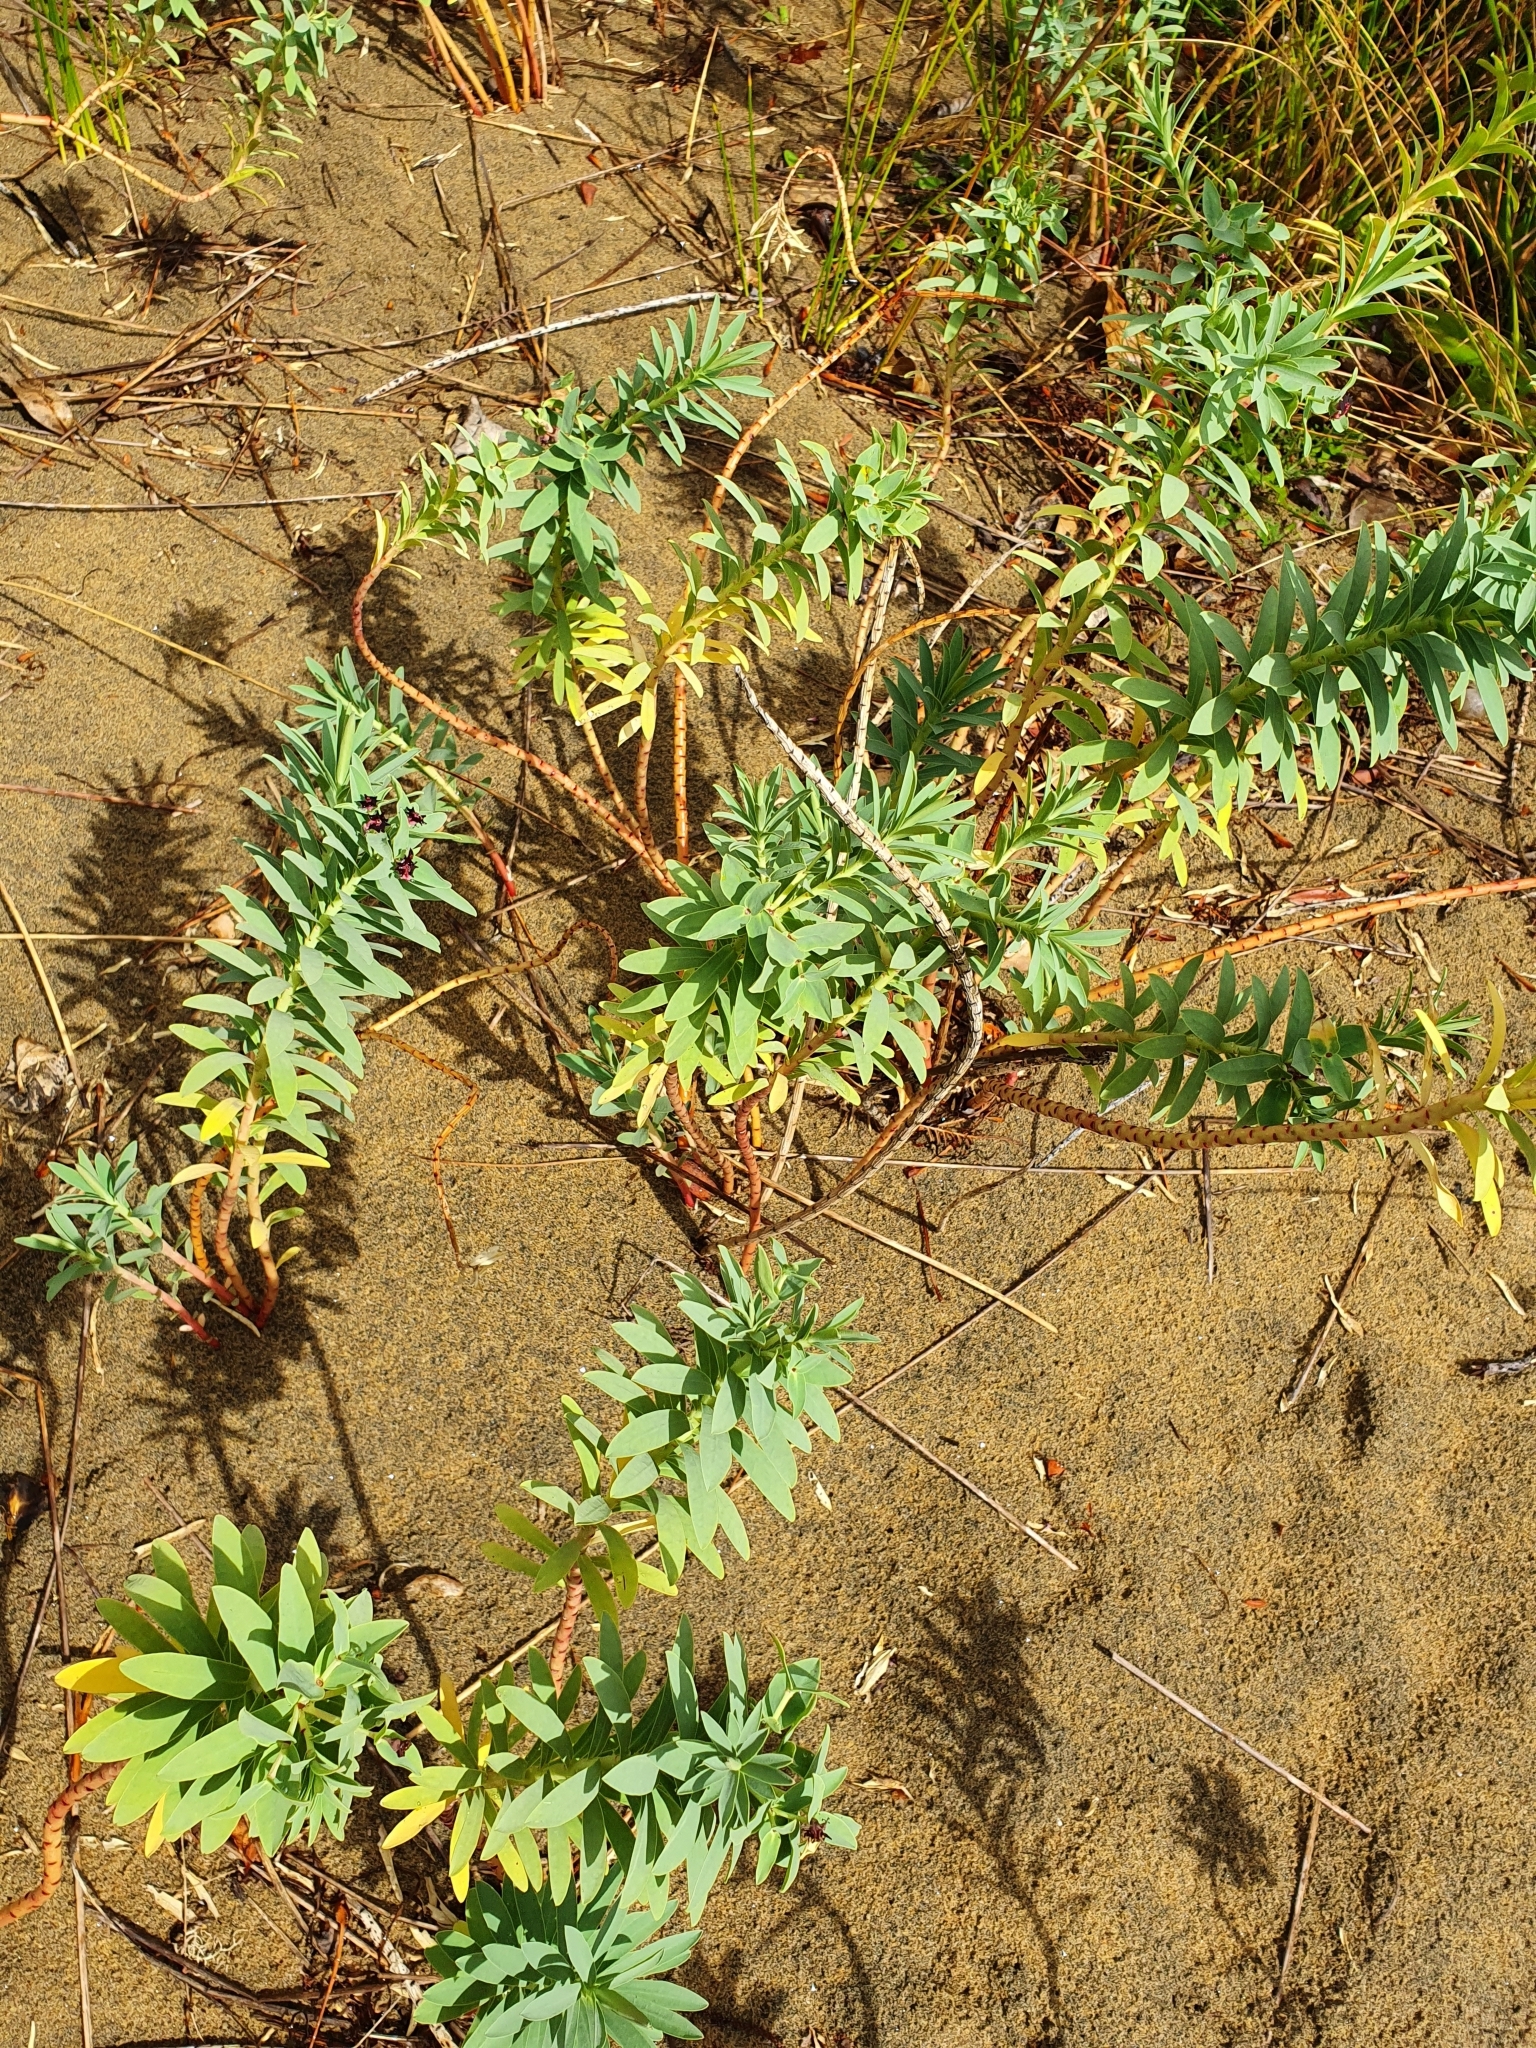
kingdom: Plantae
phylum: Tracheophyta
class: Magnoliopsida
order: Malpighiales
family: Euphorbiaceae
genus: Euphorbia
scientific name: Euphorbia glauca
